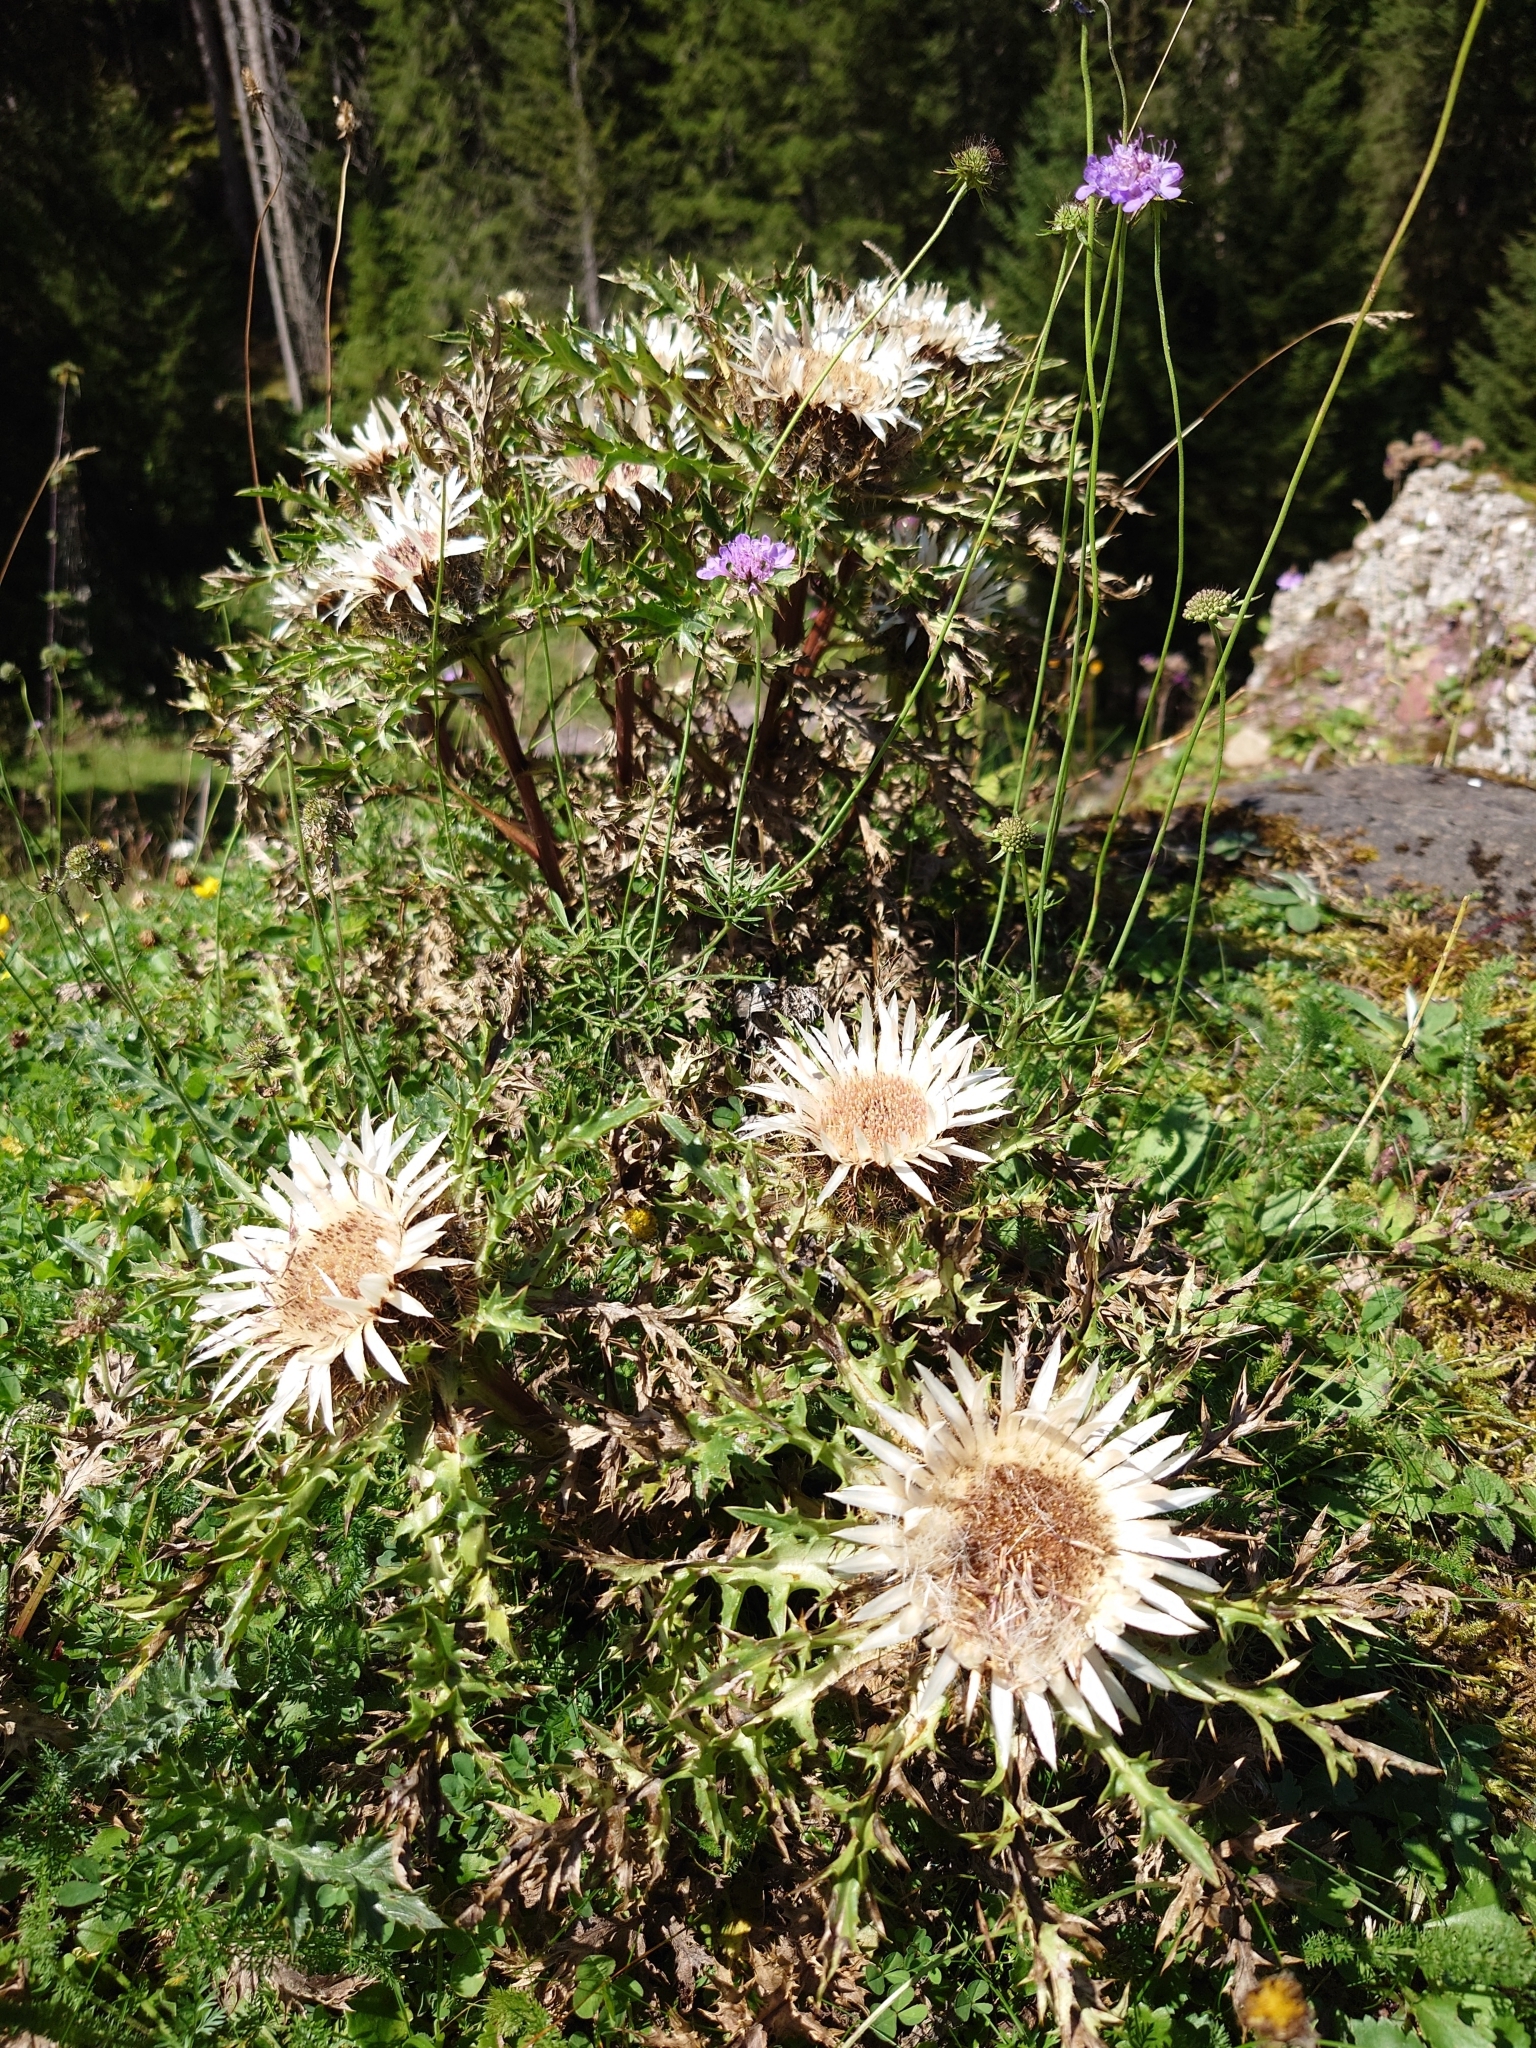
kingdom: Plantae
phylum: Tracheophyta
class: Magnoliopsida
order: Asterales
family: Asteraceae
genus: Carlina
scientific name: Carlina acaulis
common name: Stemless carline thistle
